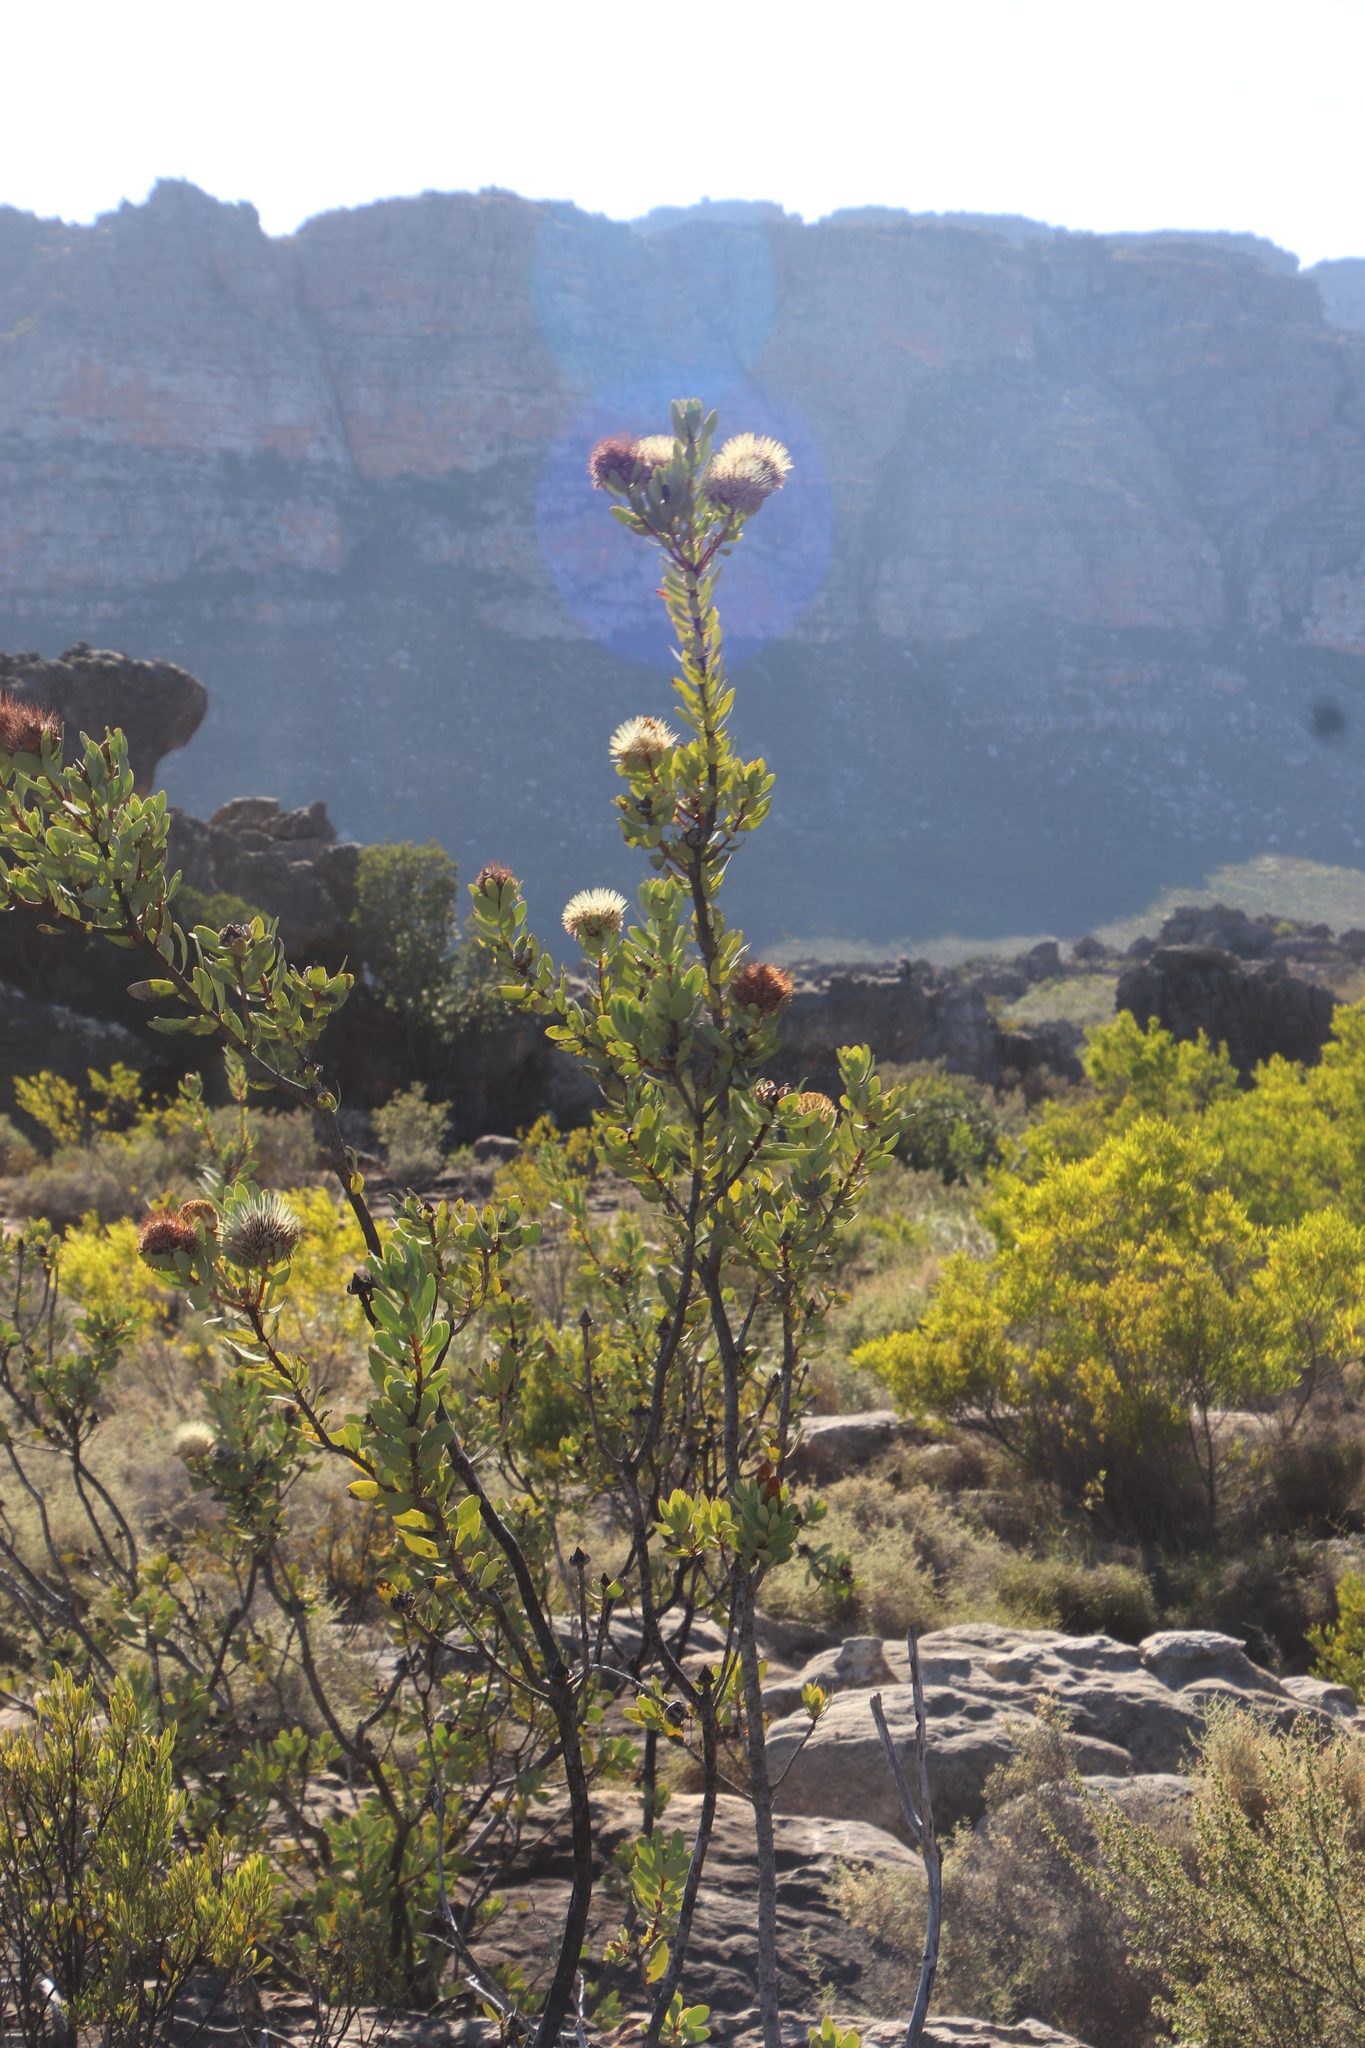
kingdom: Plantae
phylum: Tracheophyta
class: Magnoliopsida
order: Proteales
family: Proteaceae
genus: Protea
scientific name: Protea glabra
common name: Chestnut sugarbush
